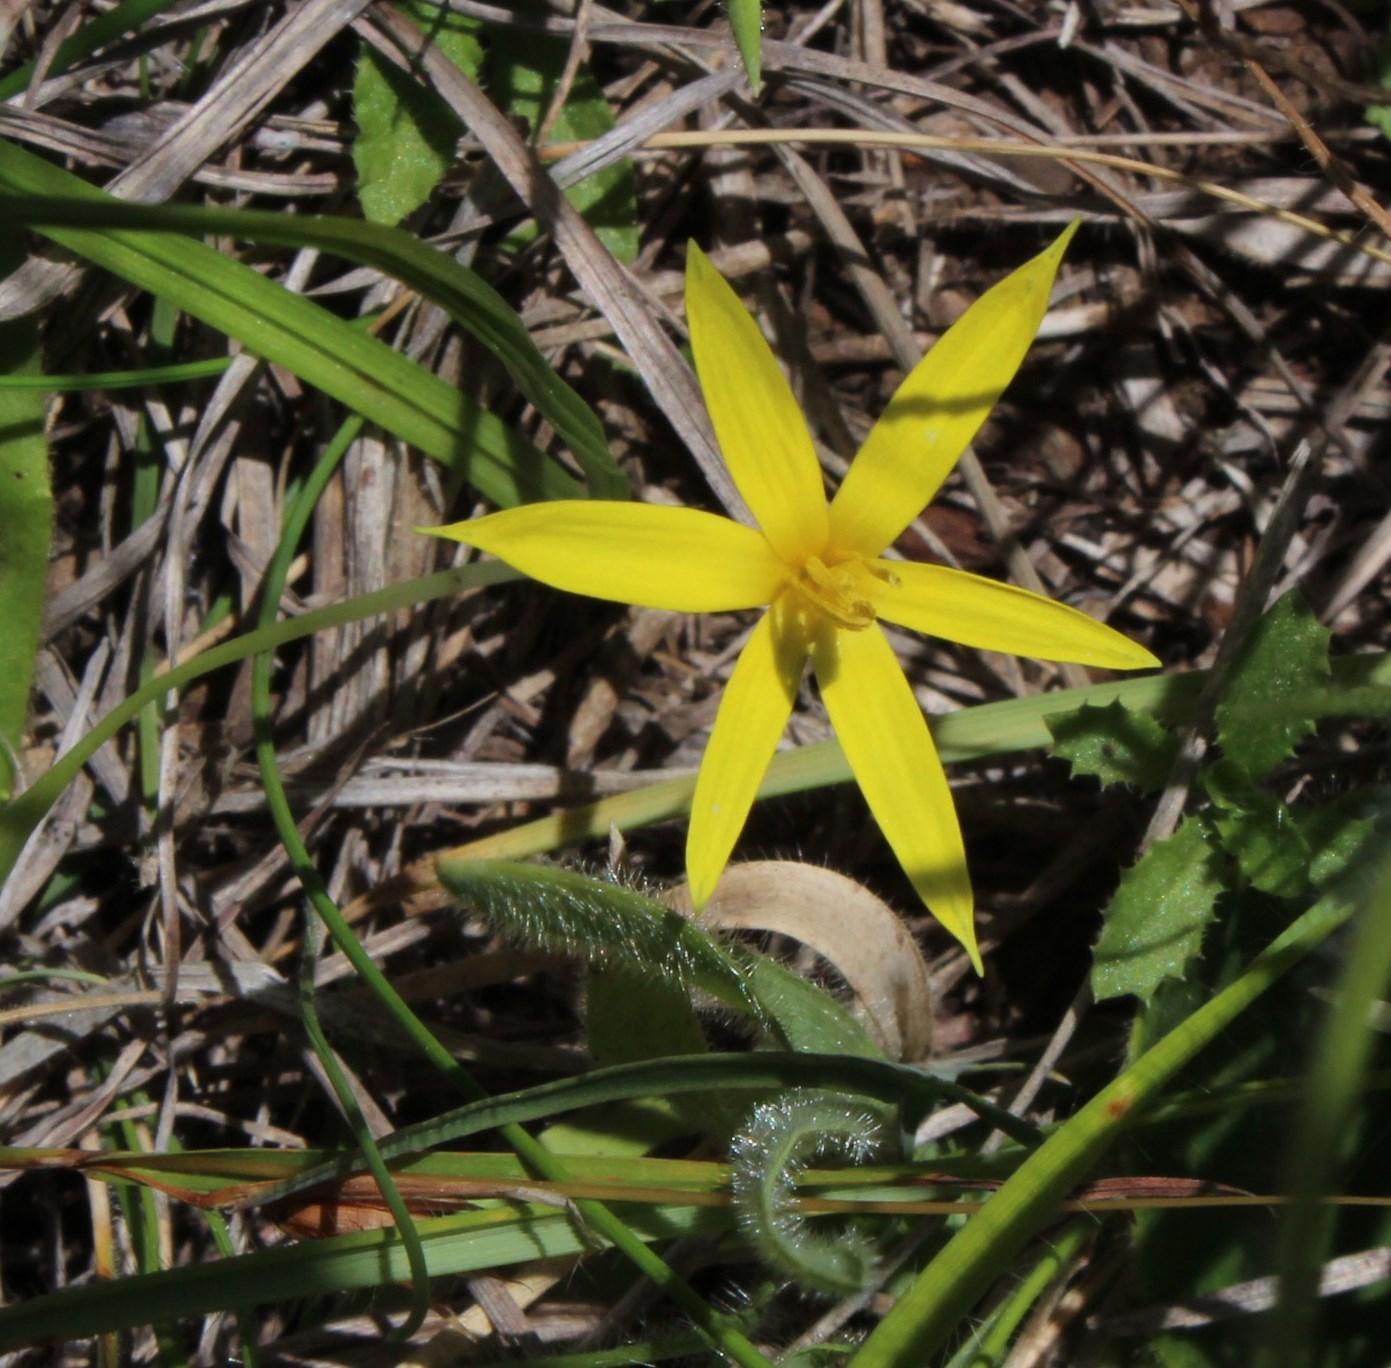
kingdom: Plantae
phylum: Tracheophyta
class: Liliopsida
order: Asparagales
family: Hypoxidaceae
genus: Empodium
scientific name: Empodium elongatum
